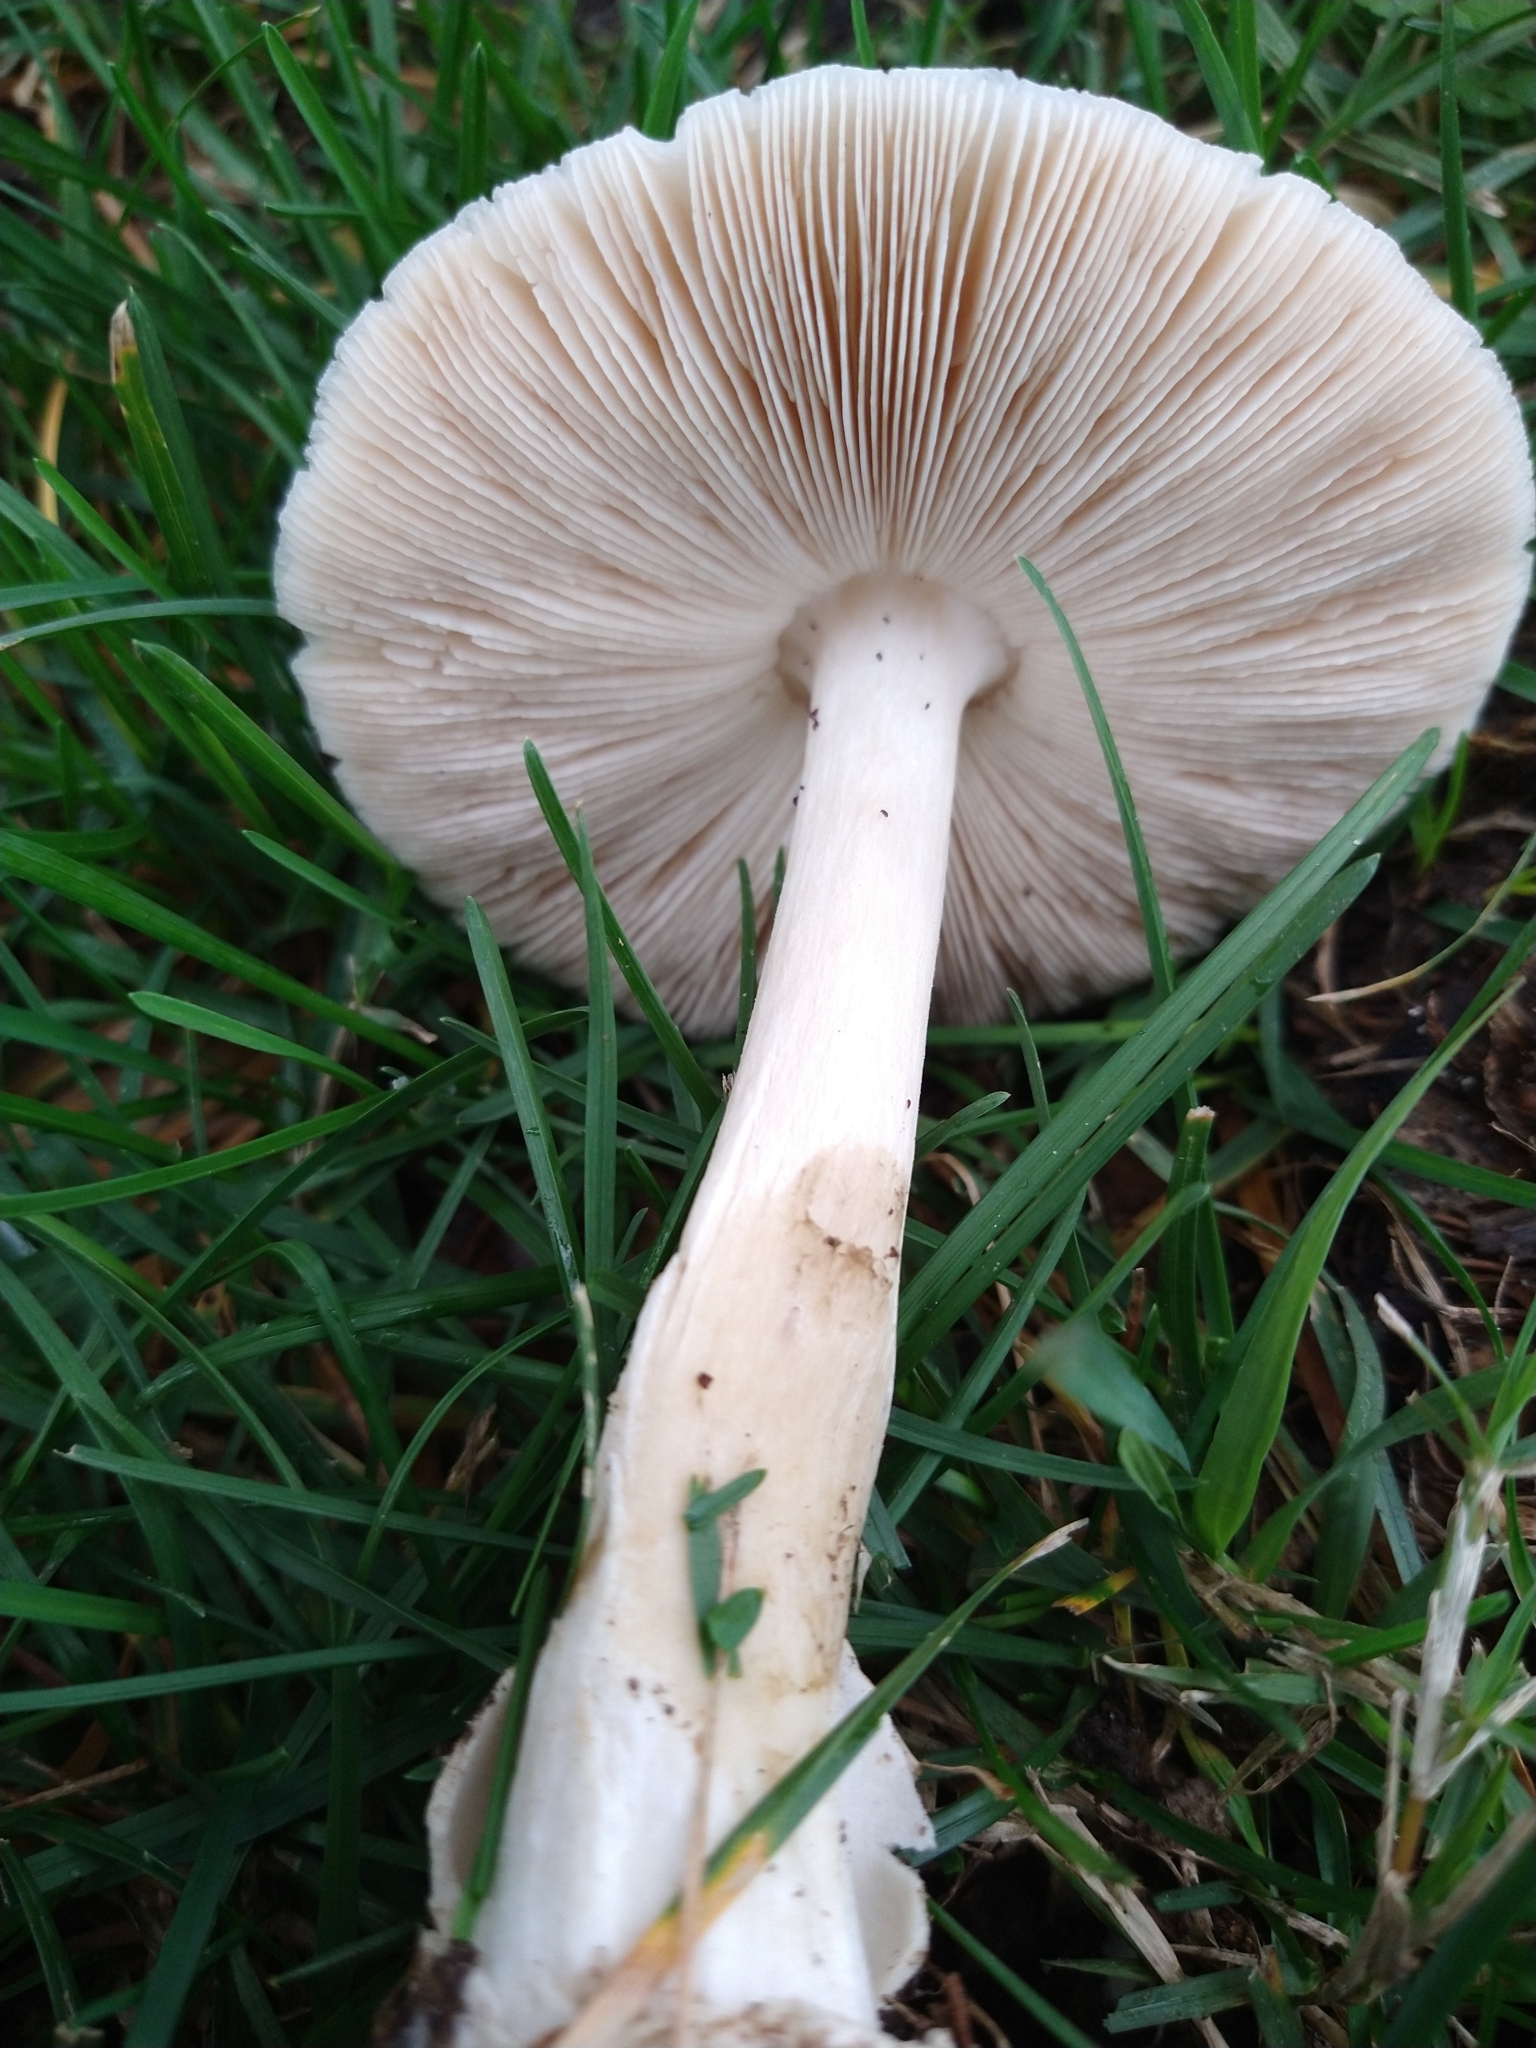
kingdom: Fungi
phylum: Basidiomycota
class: Agaricomycetes
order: Agaricales
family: Pluteaceae
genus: Volvopluteus
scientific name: Volvopluteus gloiocephalus
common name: Stubble rosegill
